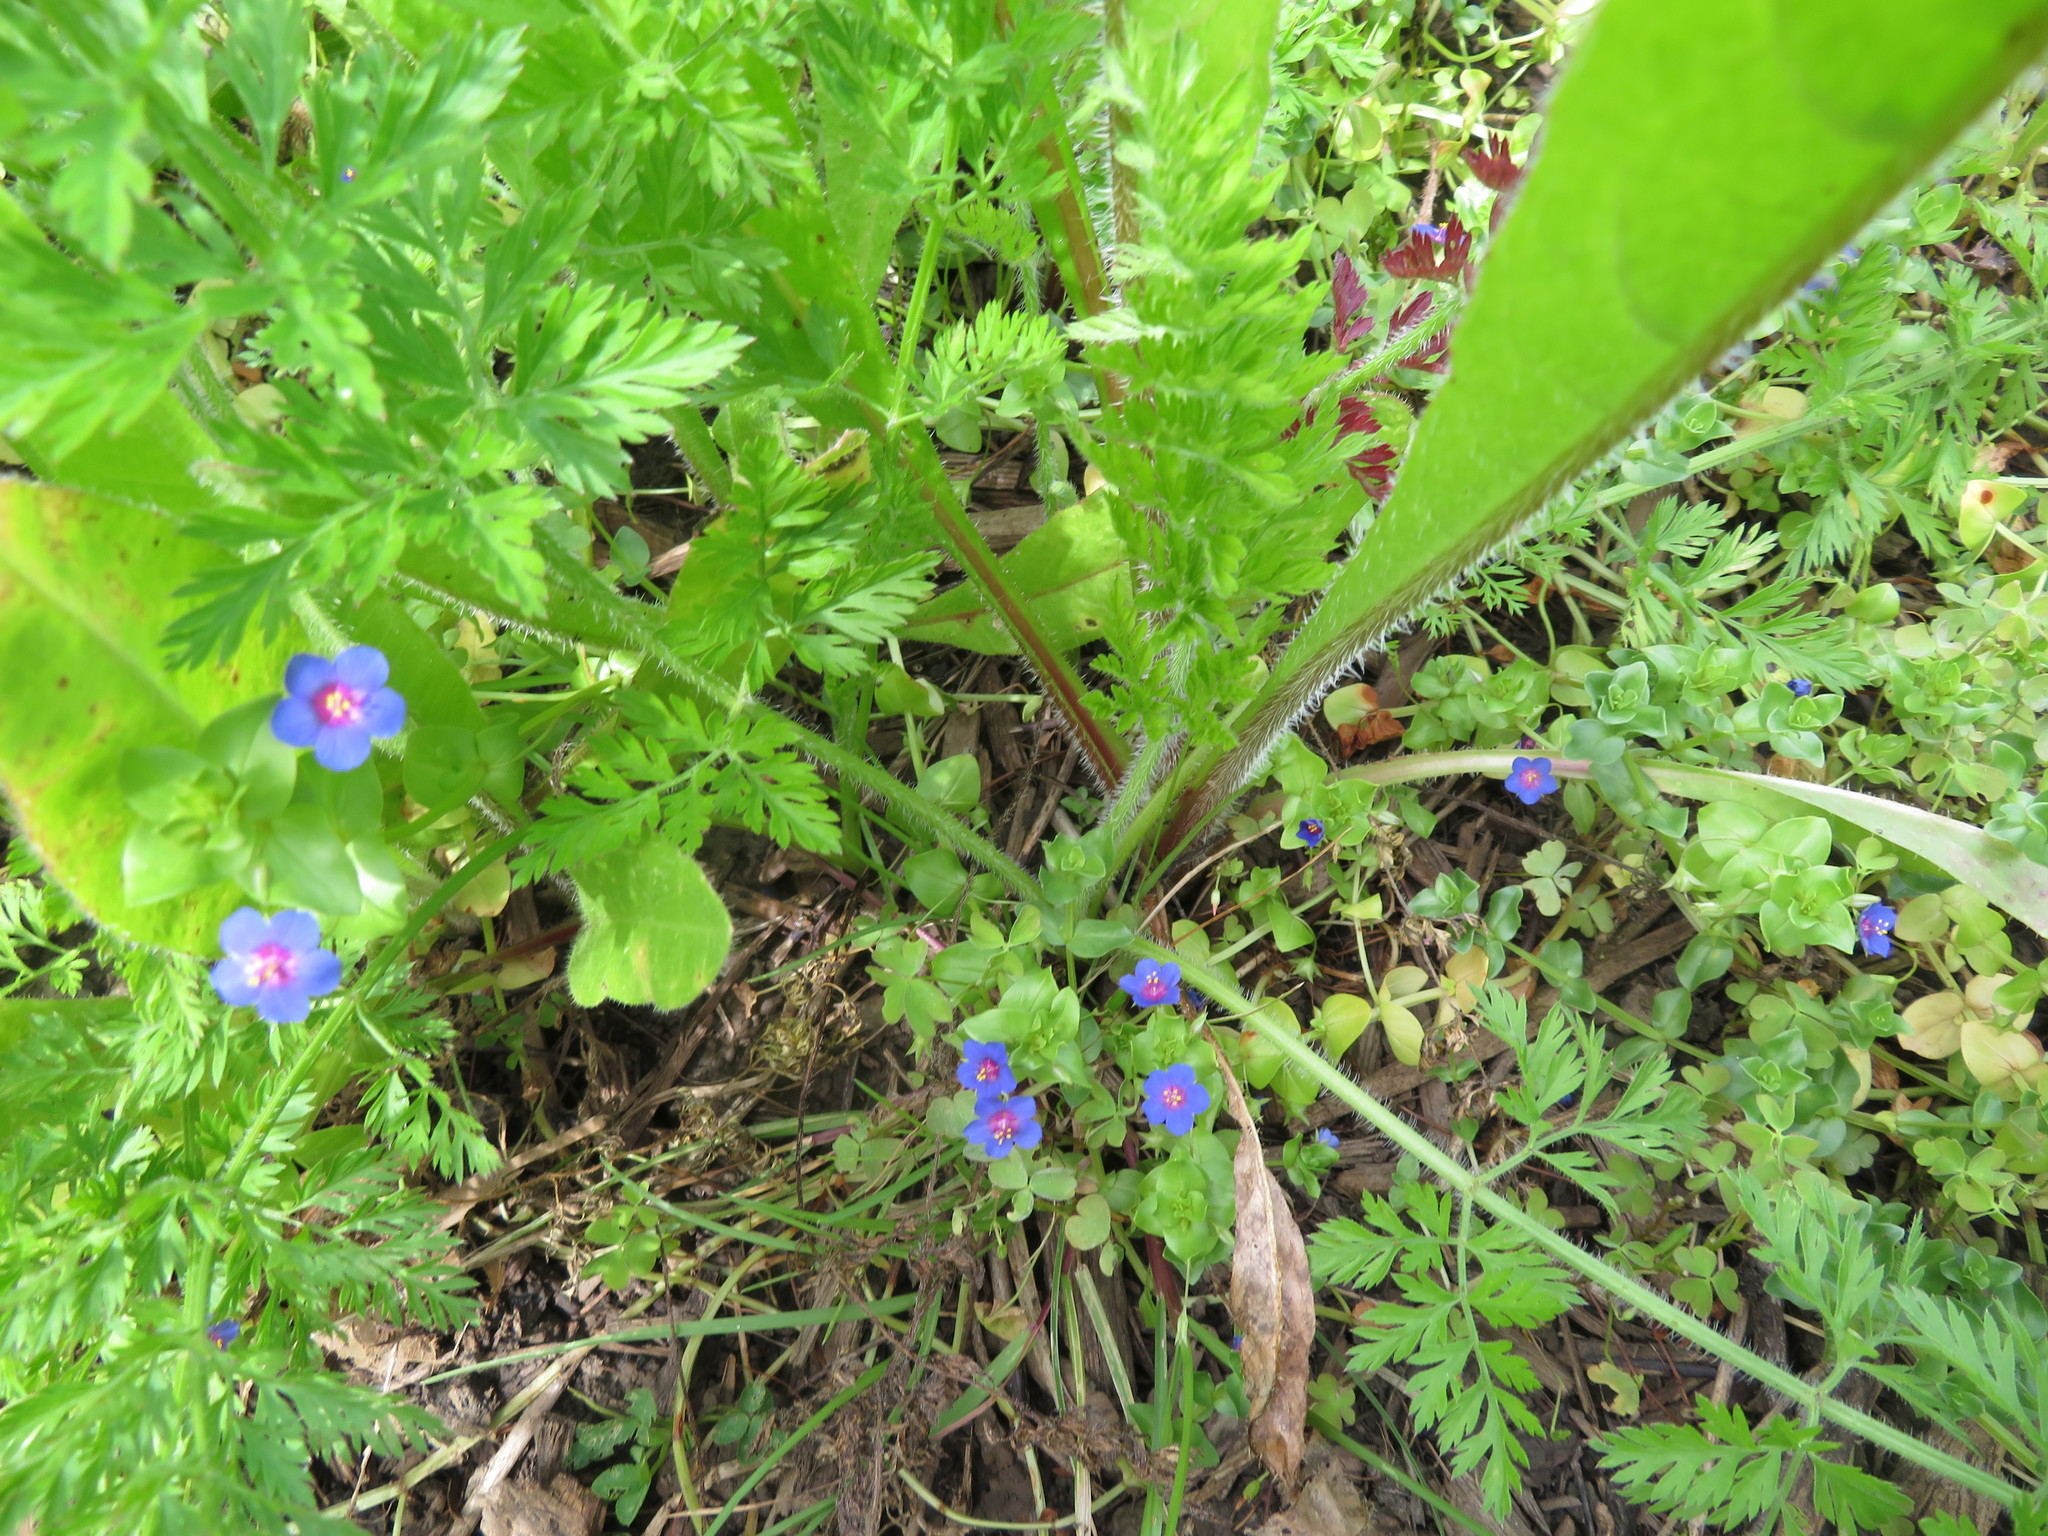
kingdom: Plantae
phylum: Tracheophyta
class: Magnoliopsida
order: Asterales
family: Asteraceae
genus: Helminthotheca
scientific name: Helminthotheca echioides
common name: Ox-tongue
